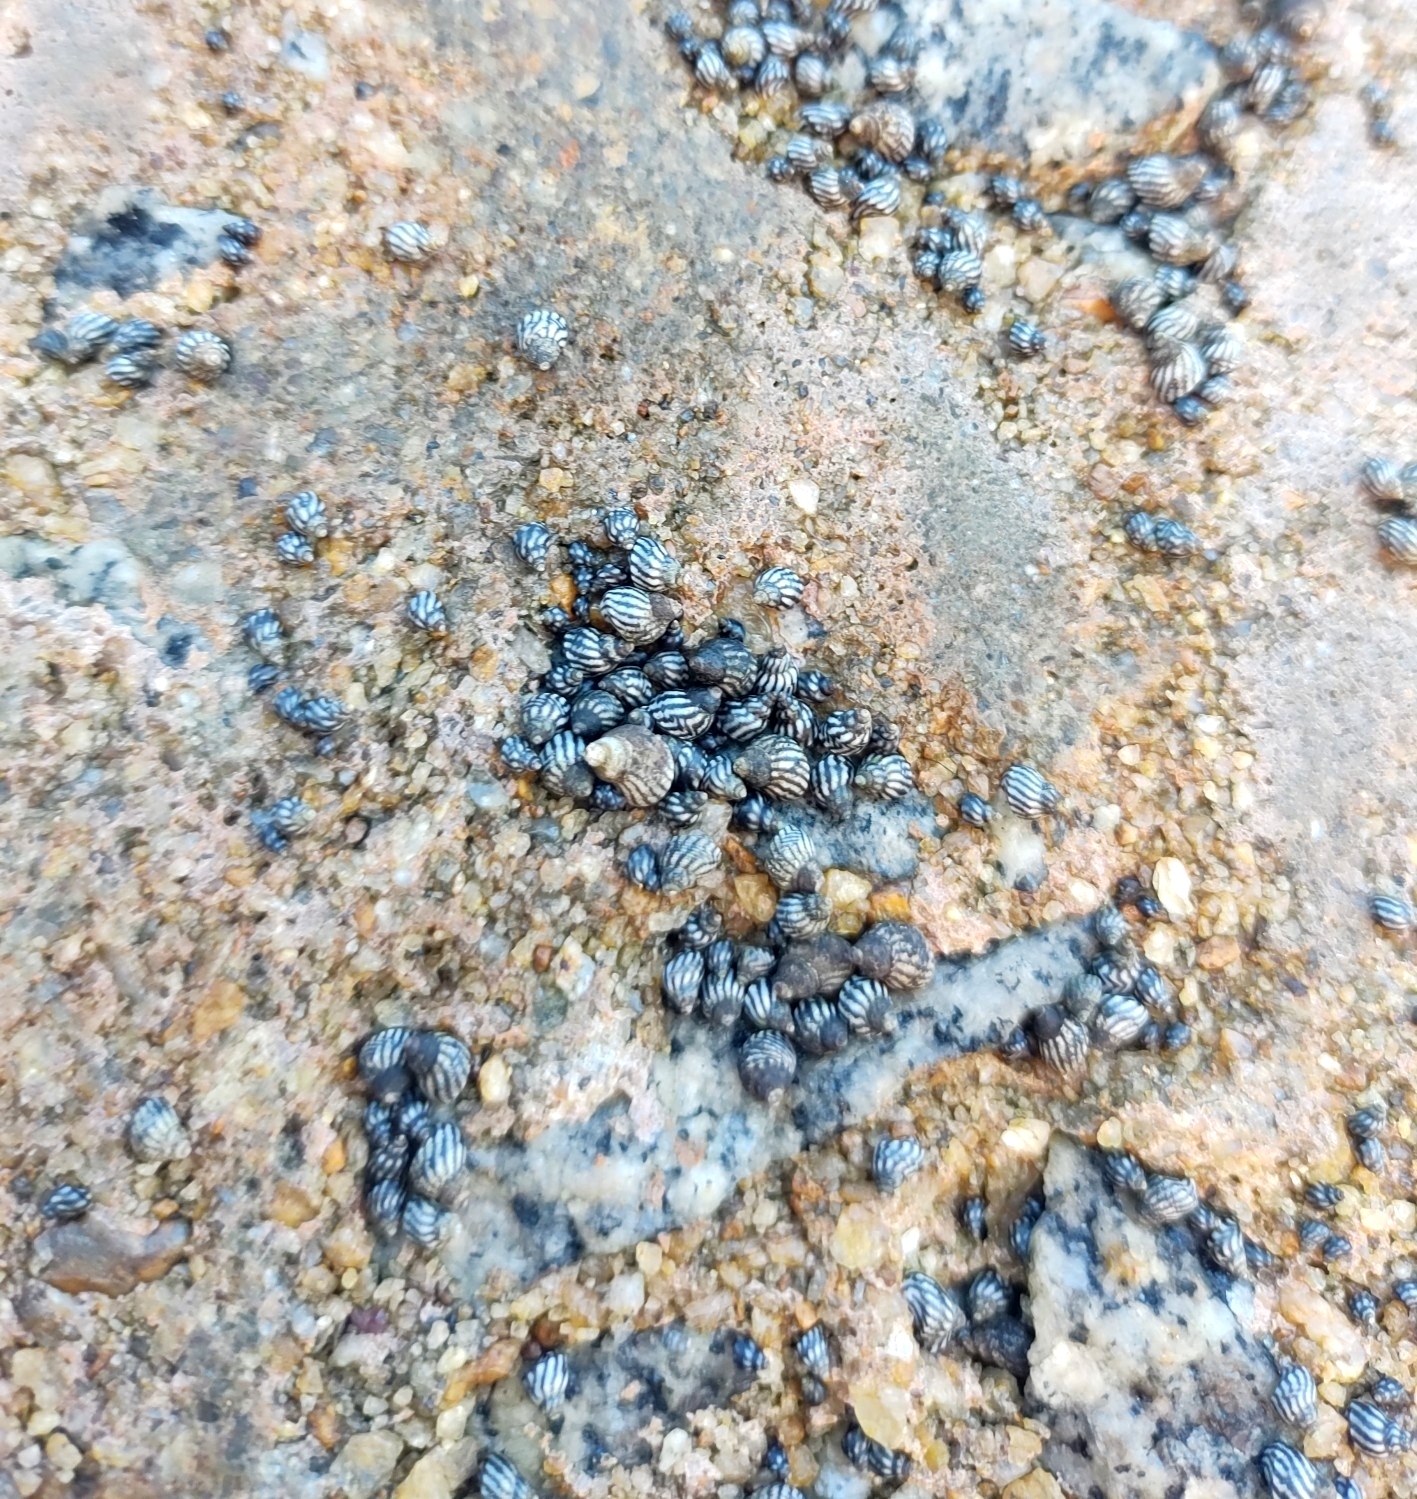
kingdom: Animalia
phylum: Mollusca
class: Gastropoda
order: Littorinimorpha
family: Littorinidae
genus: Echinolittorina
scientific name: Echinolittorina lineolata
